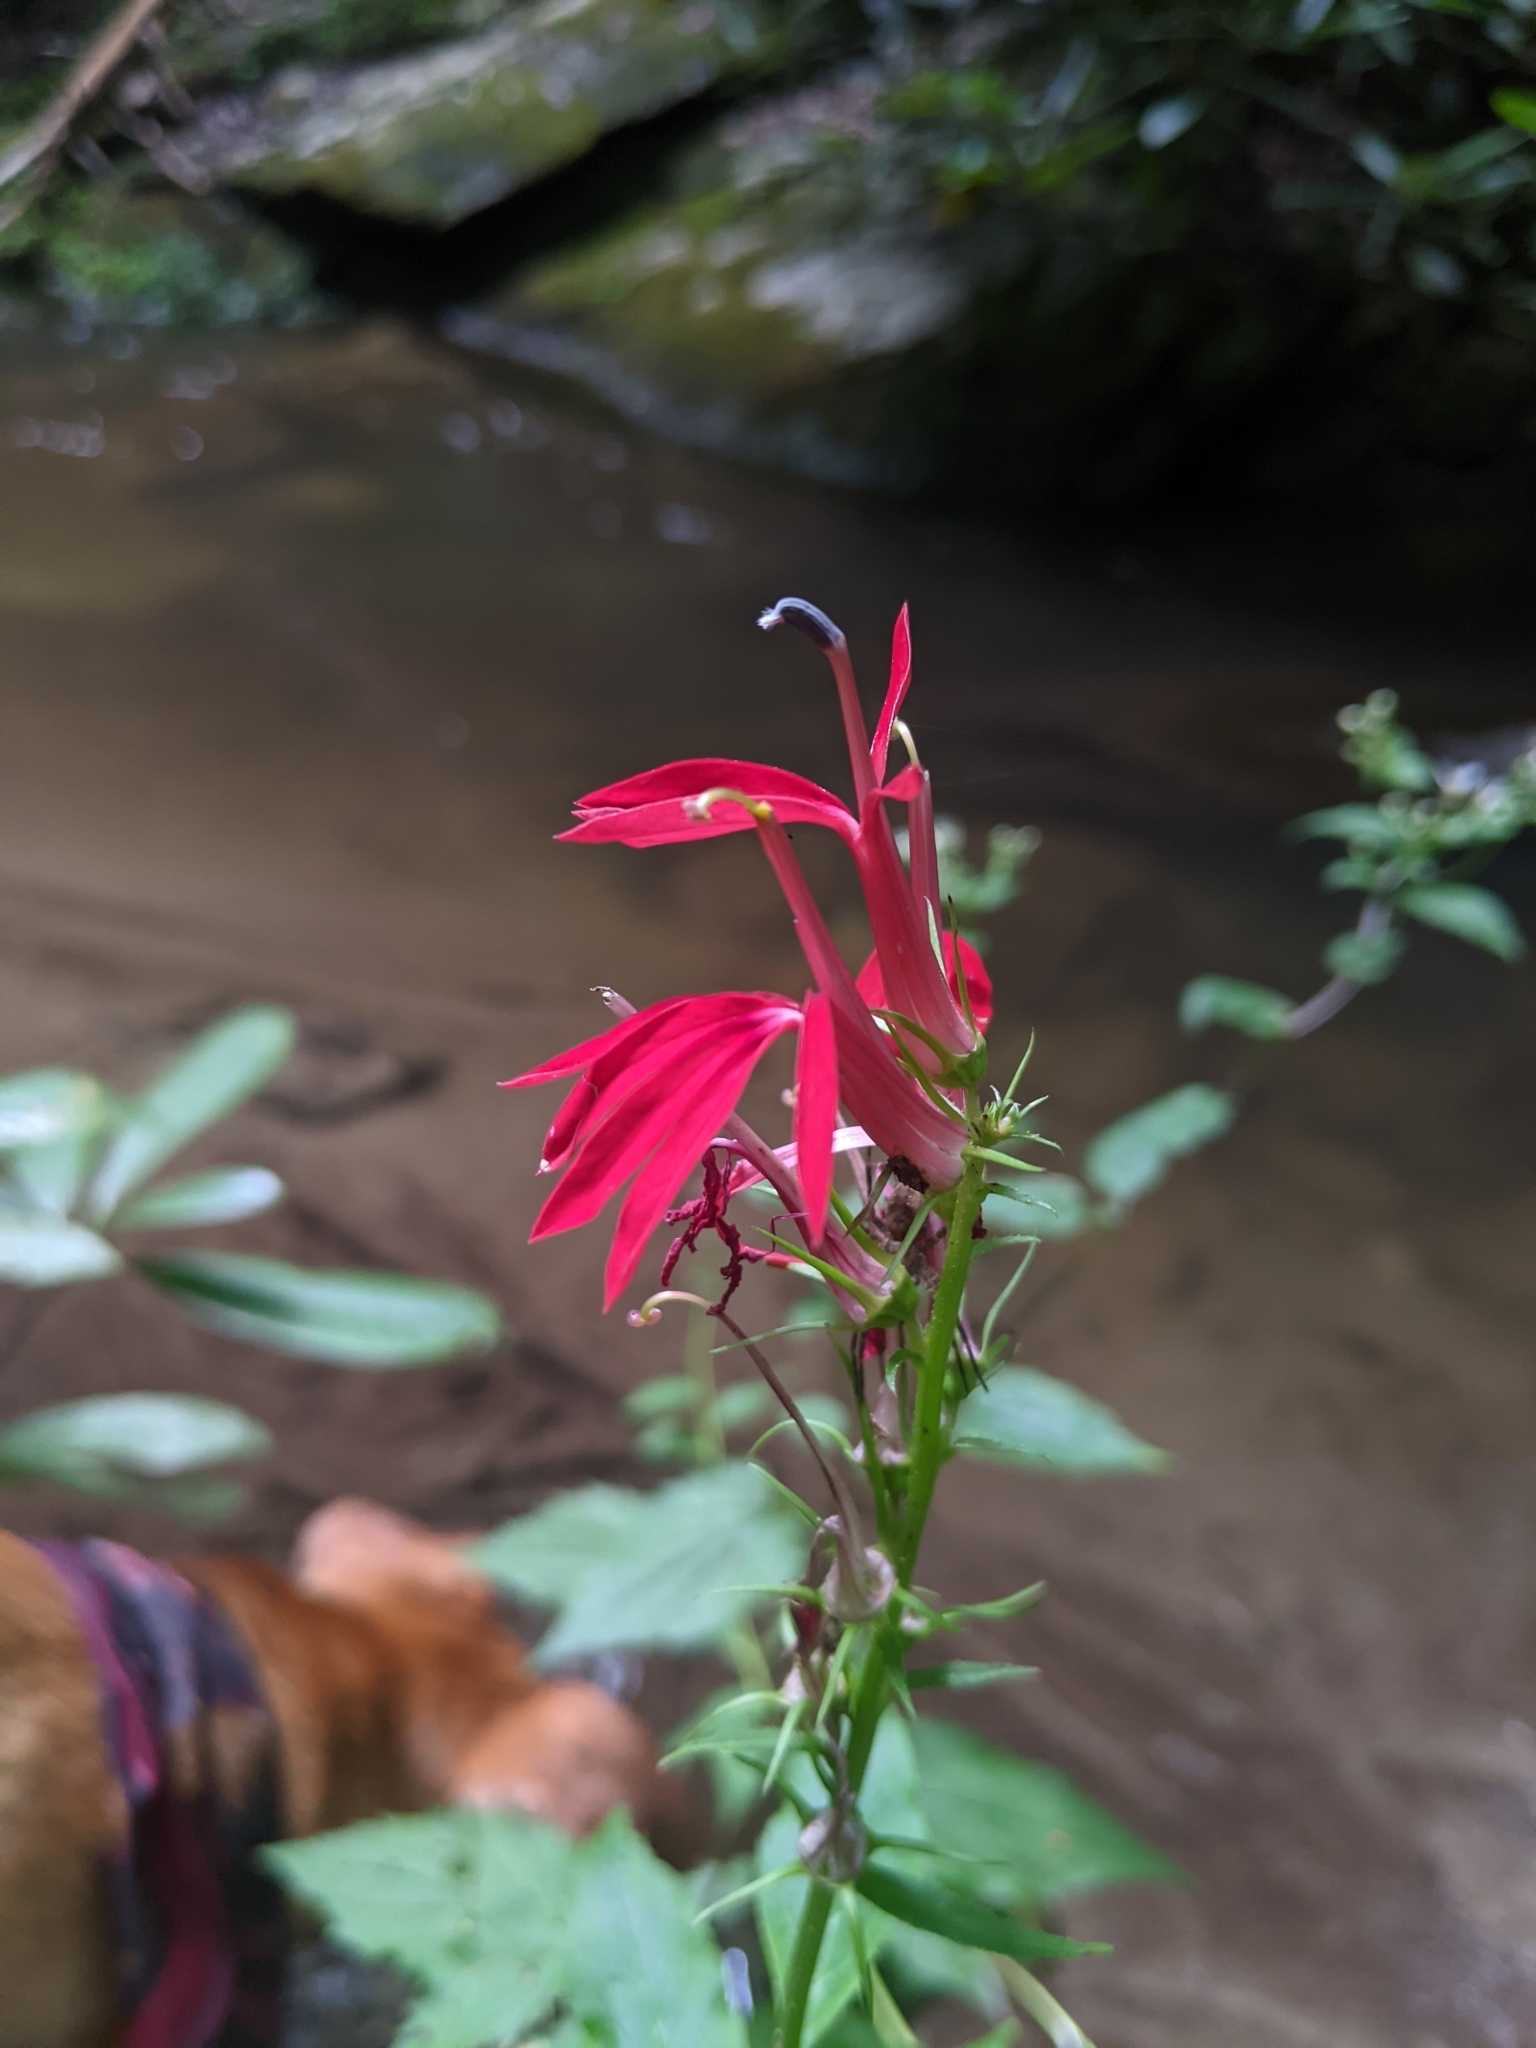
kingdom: Plantae
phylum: Tracheophyta
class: Magnoliopsida
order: Asterales
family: Campanulaceae
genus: Lobelia
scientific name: Lobelia cardinalis
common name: Cardinal flower
